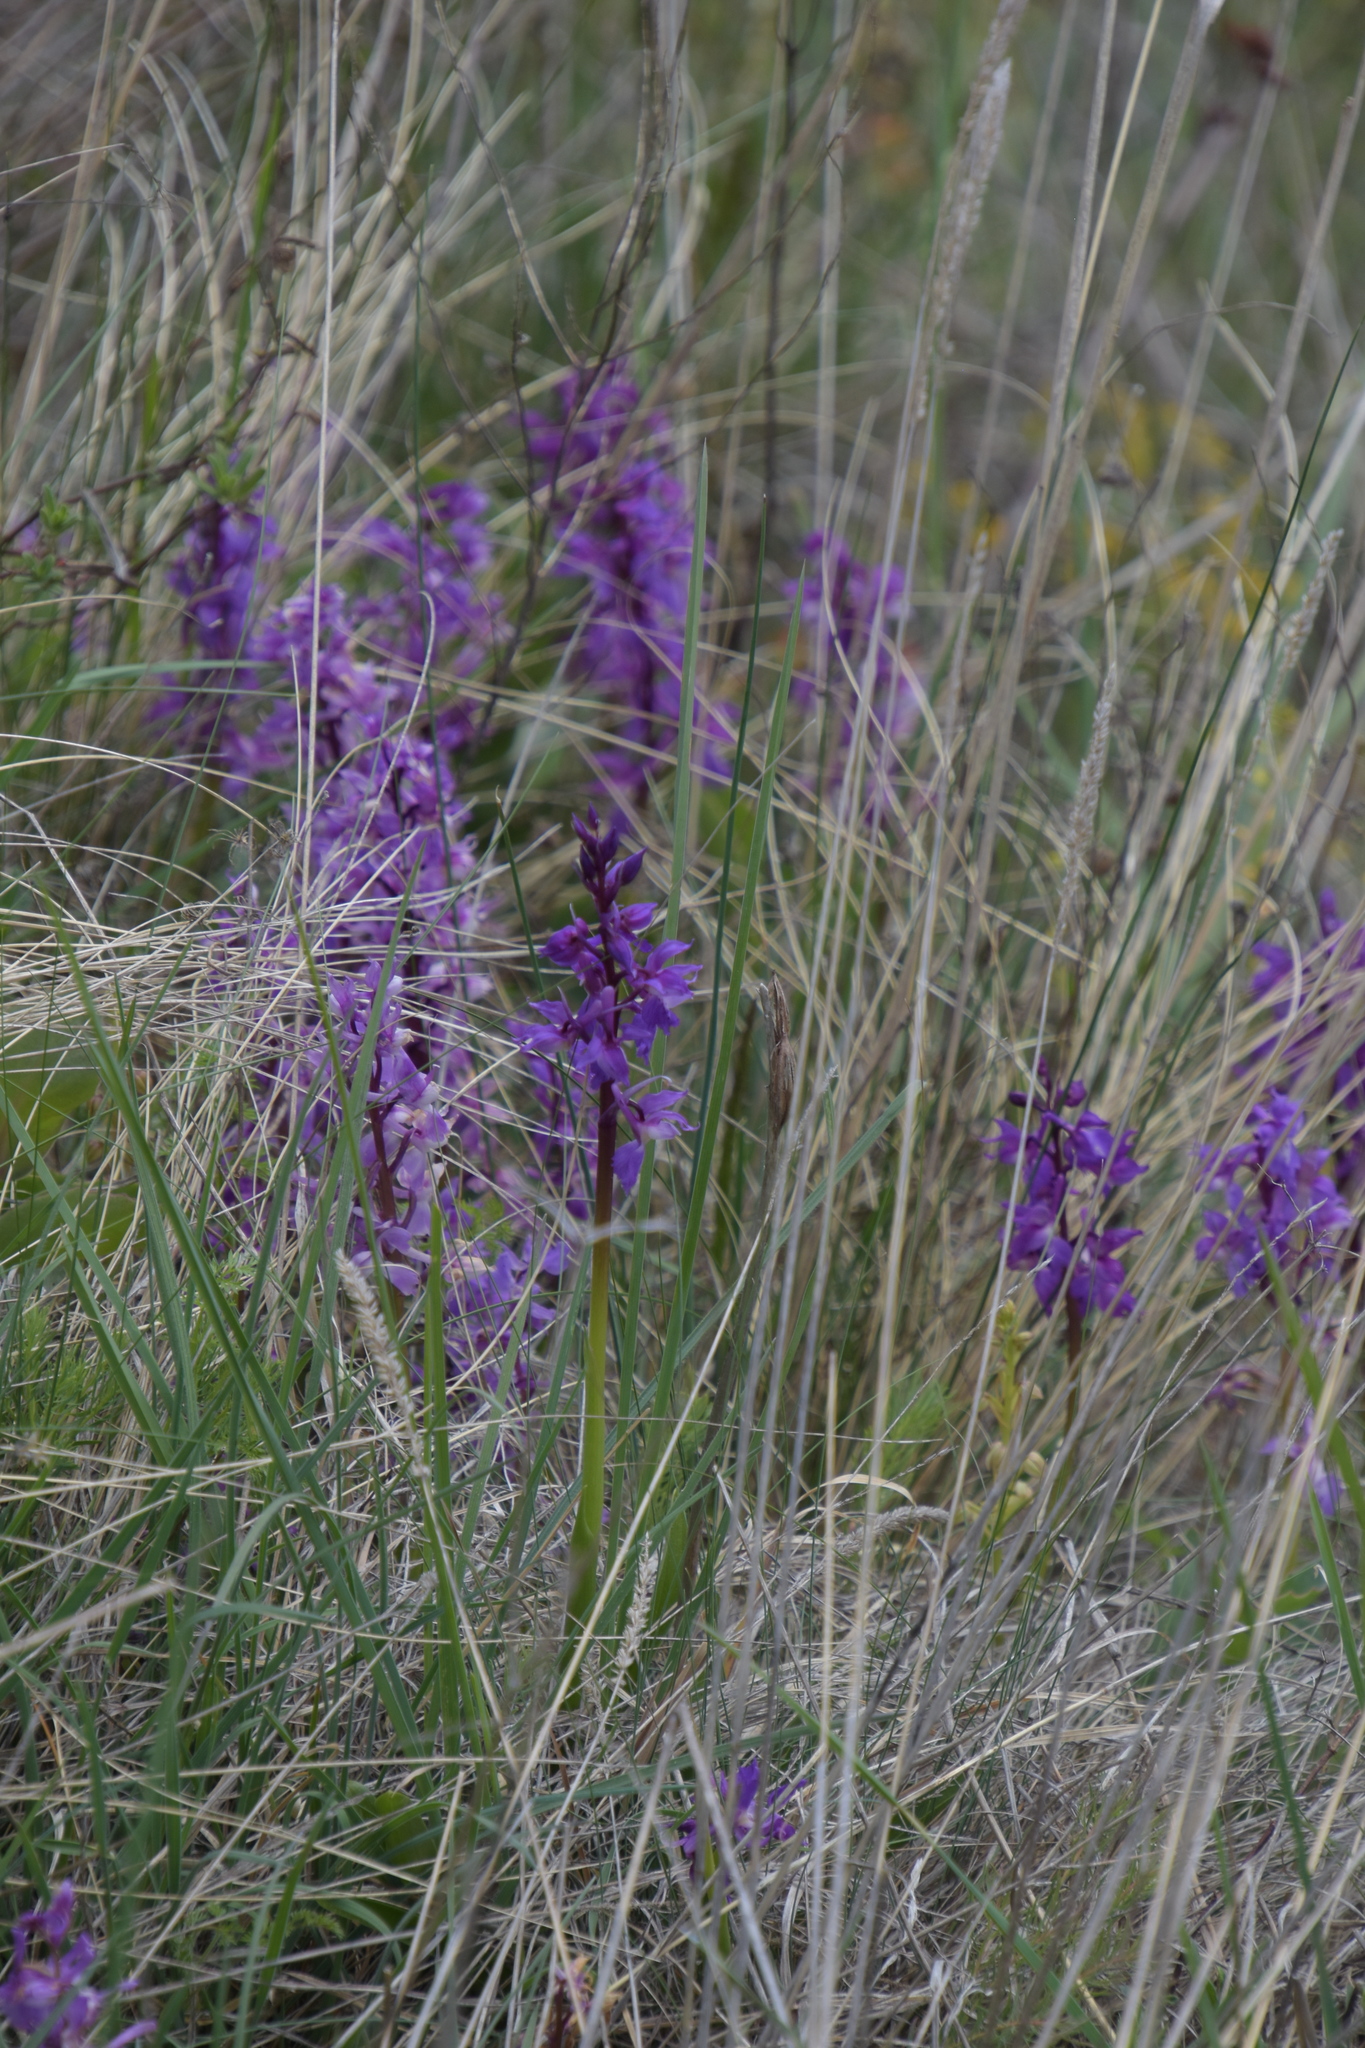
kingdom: Plantae
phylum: Tracheophyta
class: Liliopsida
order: Asparagales
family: Orchidaceae
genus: Anacamptis
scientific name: Anacamptis morio
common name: Green-winged orchid
